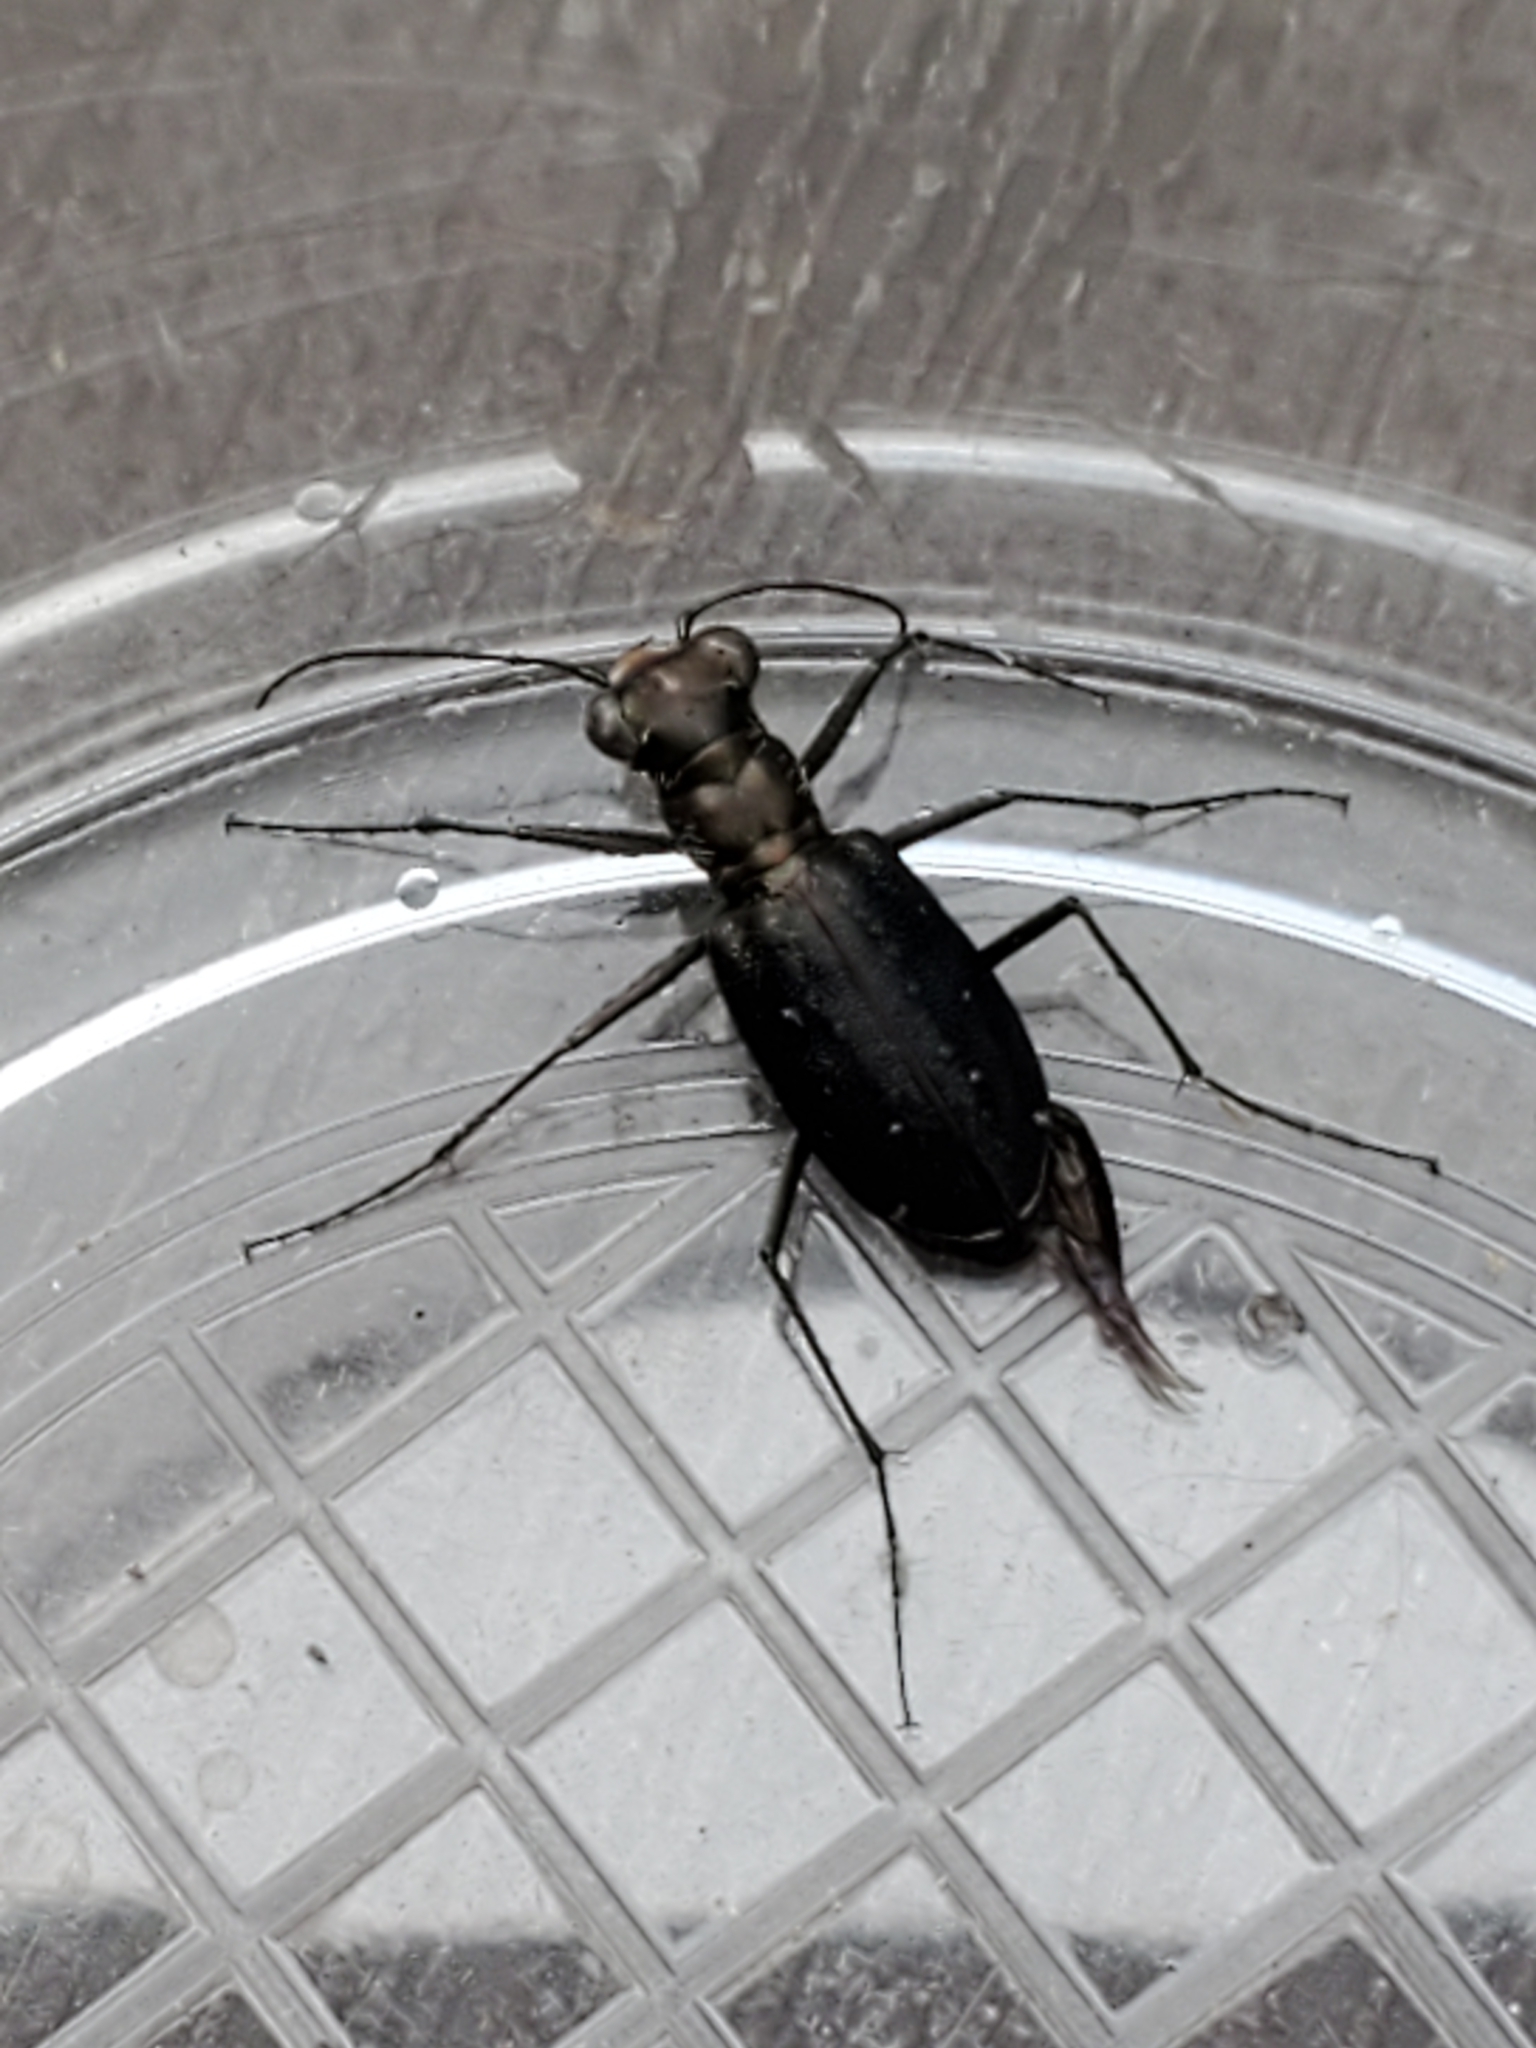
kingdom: Animalia
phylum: Arthropoda
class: Insecta
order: Coleoptera
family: Carabidae
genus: Cicindela
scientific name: Cicindela punctulata
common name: Punctured tiger beetle
